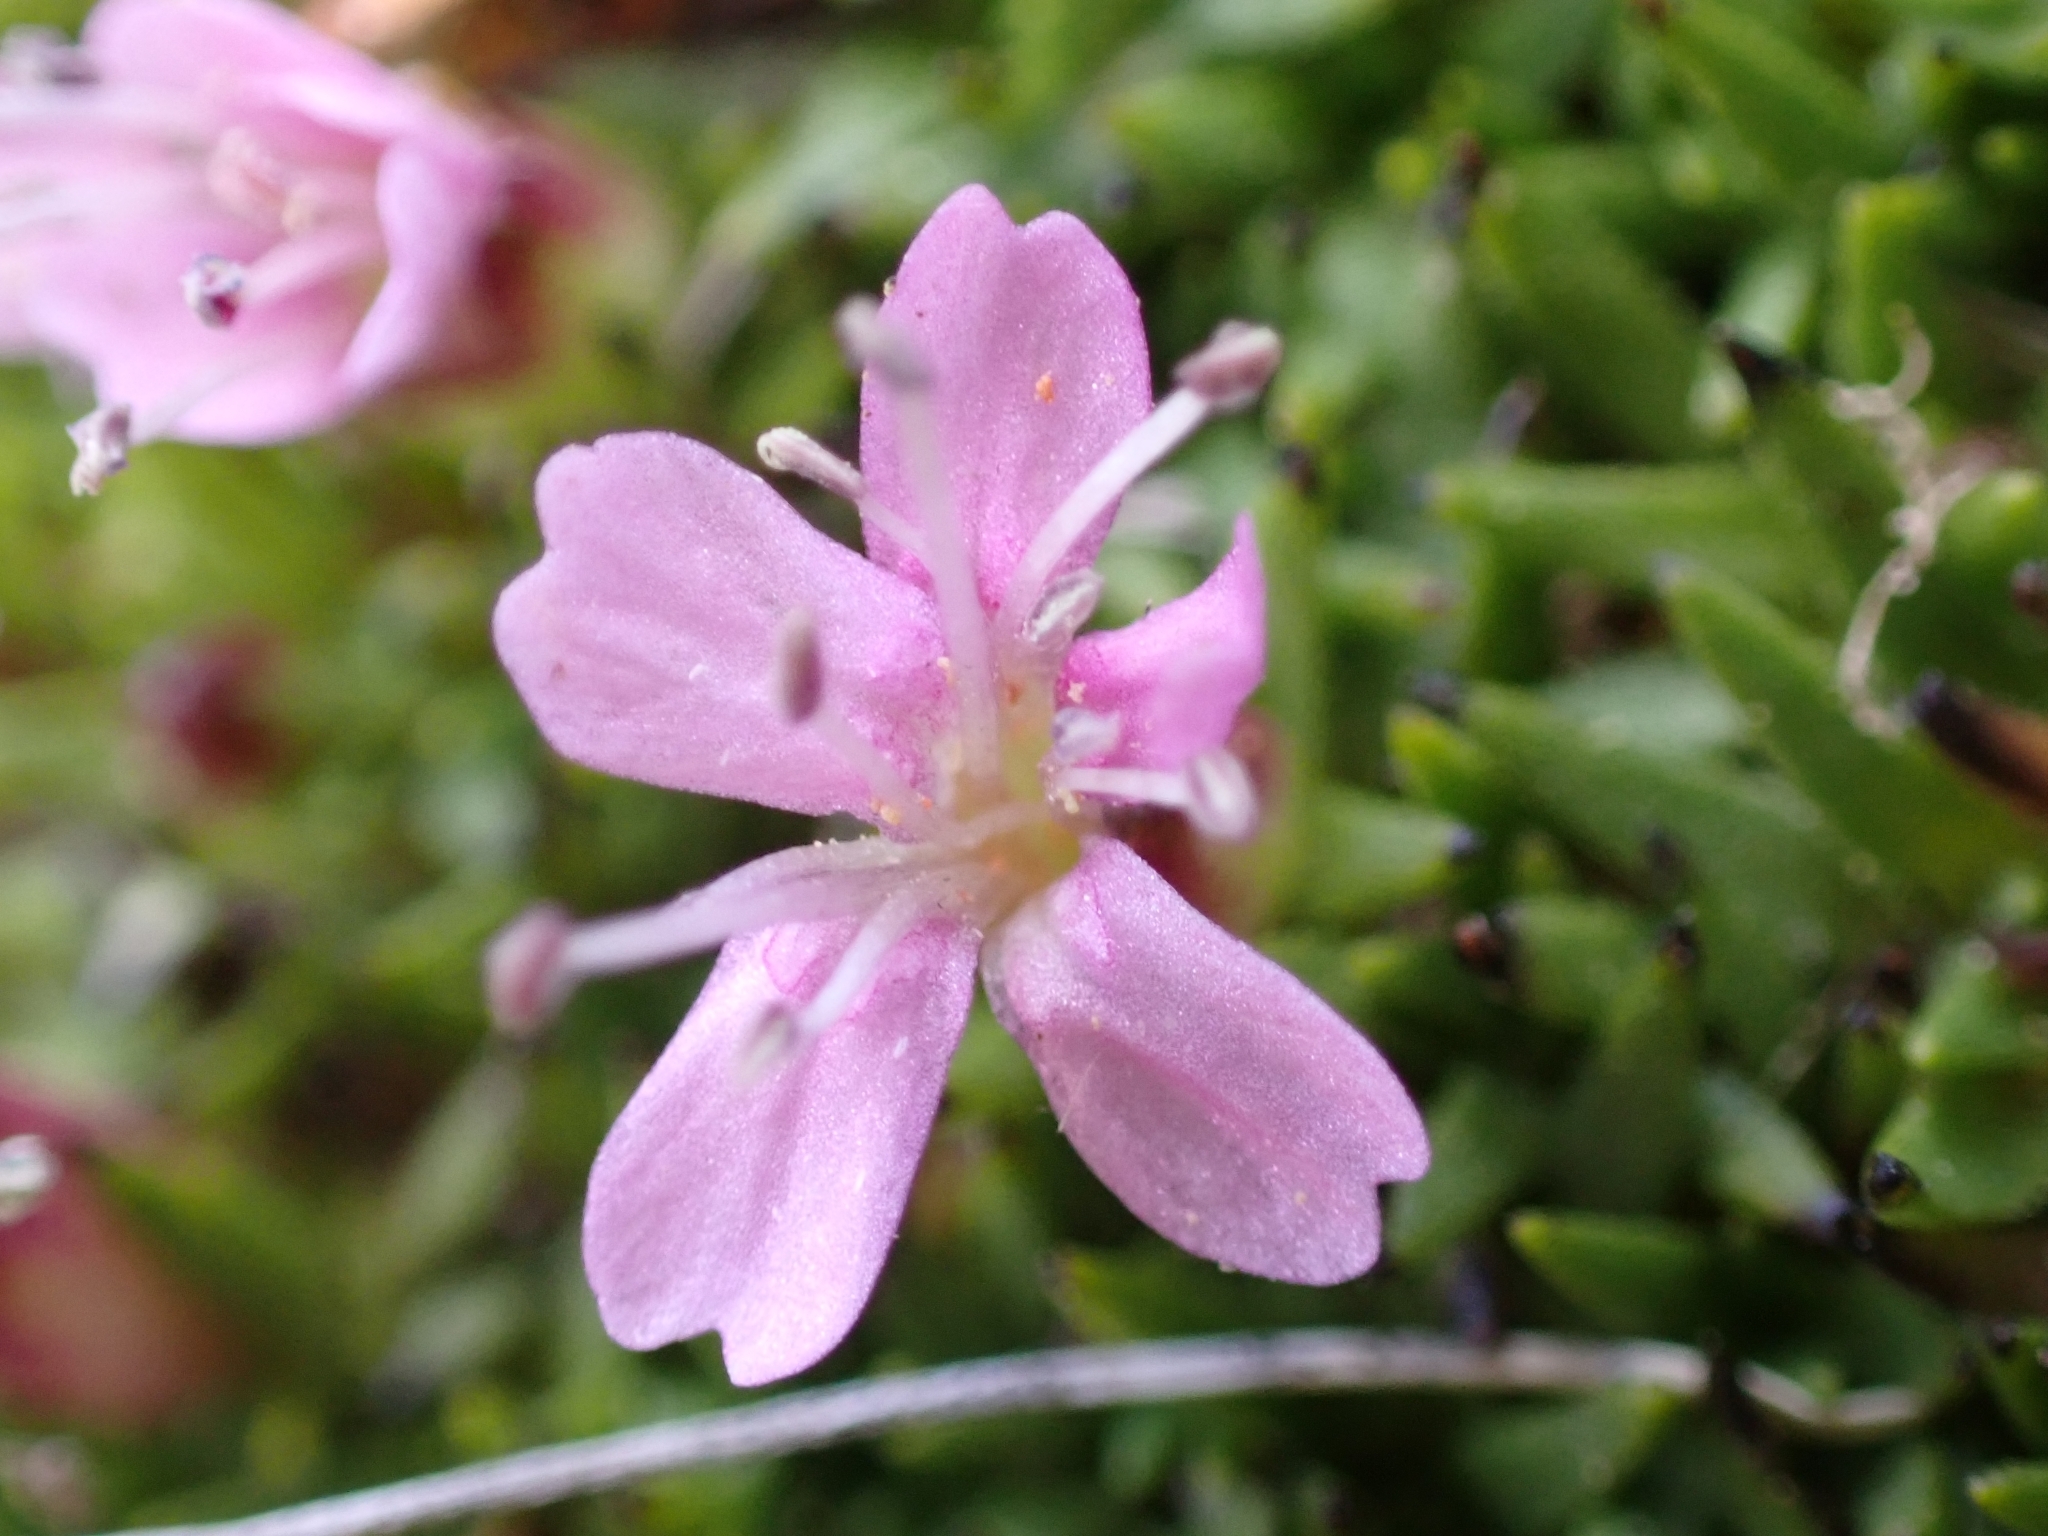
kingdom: Plantae
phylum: Tracheophyta
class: Magnoliopsida
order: Caryophyllales
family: Caryophyllaceae
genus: Silene
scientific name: Silene acaulis
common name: Moss campion
